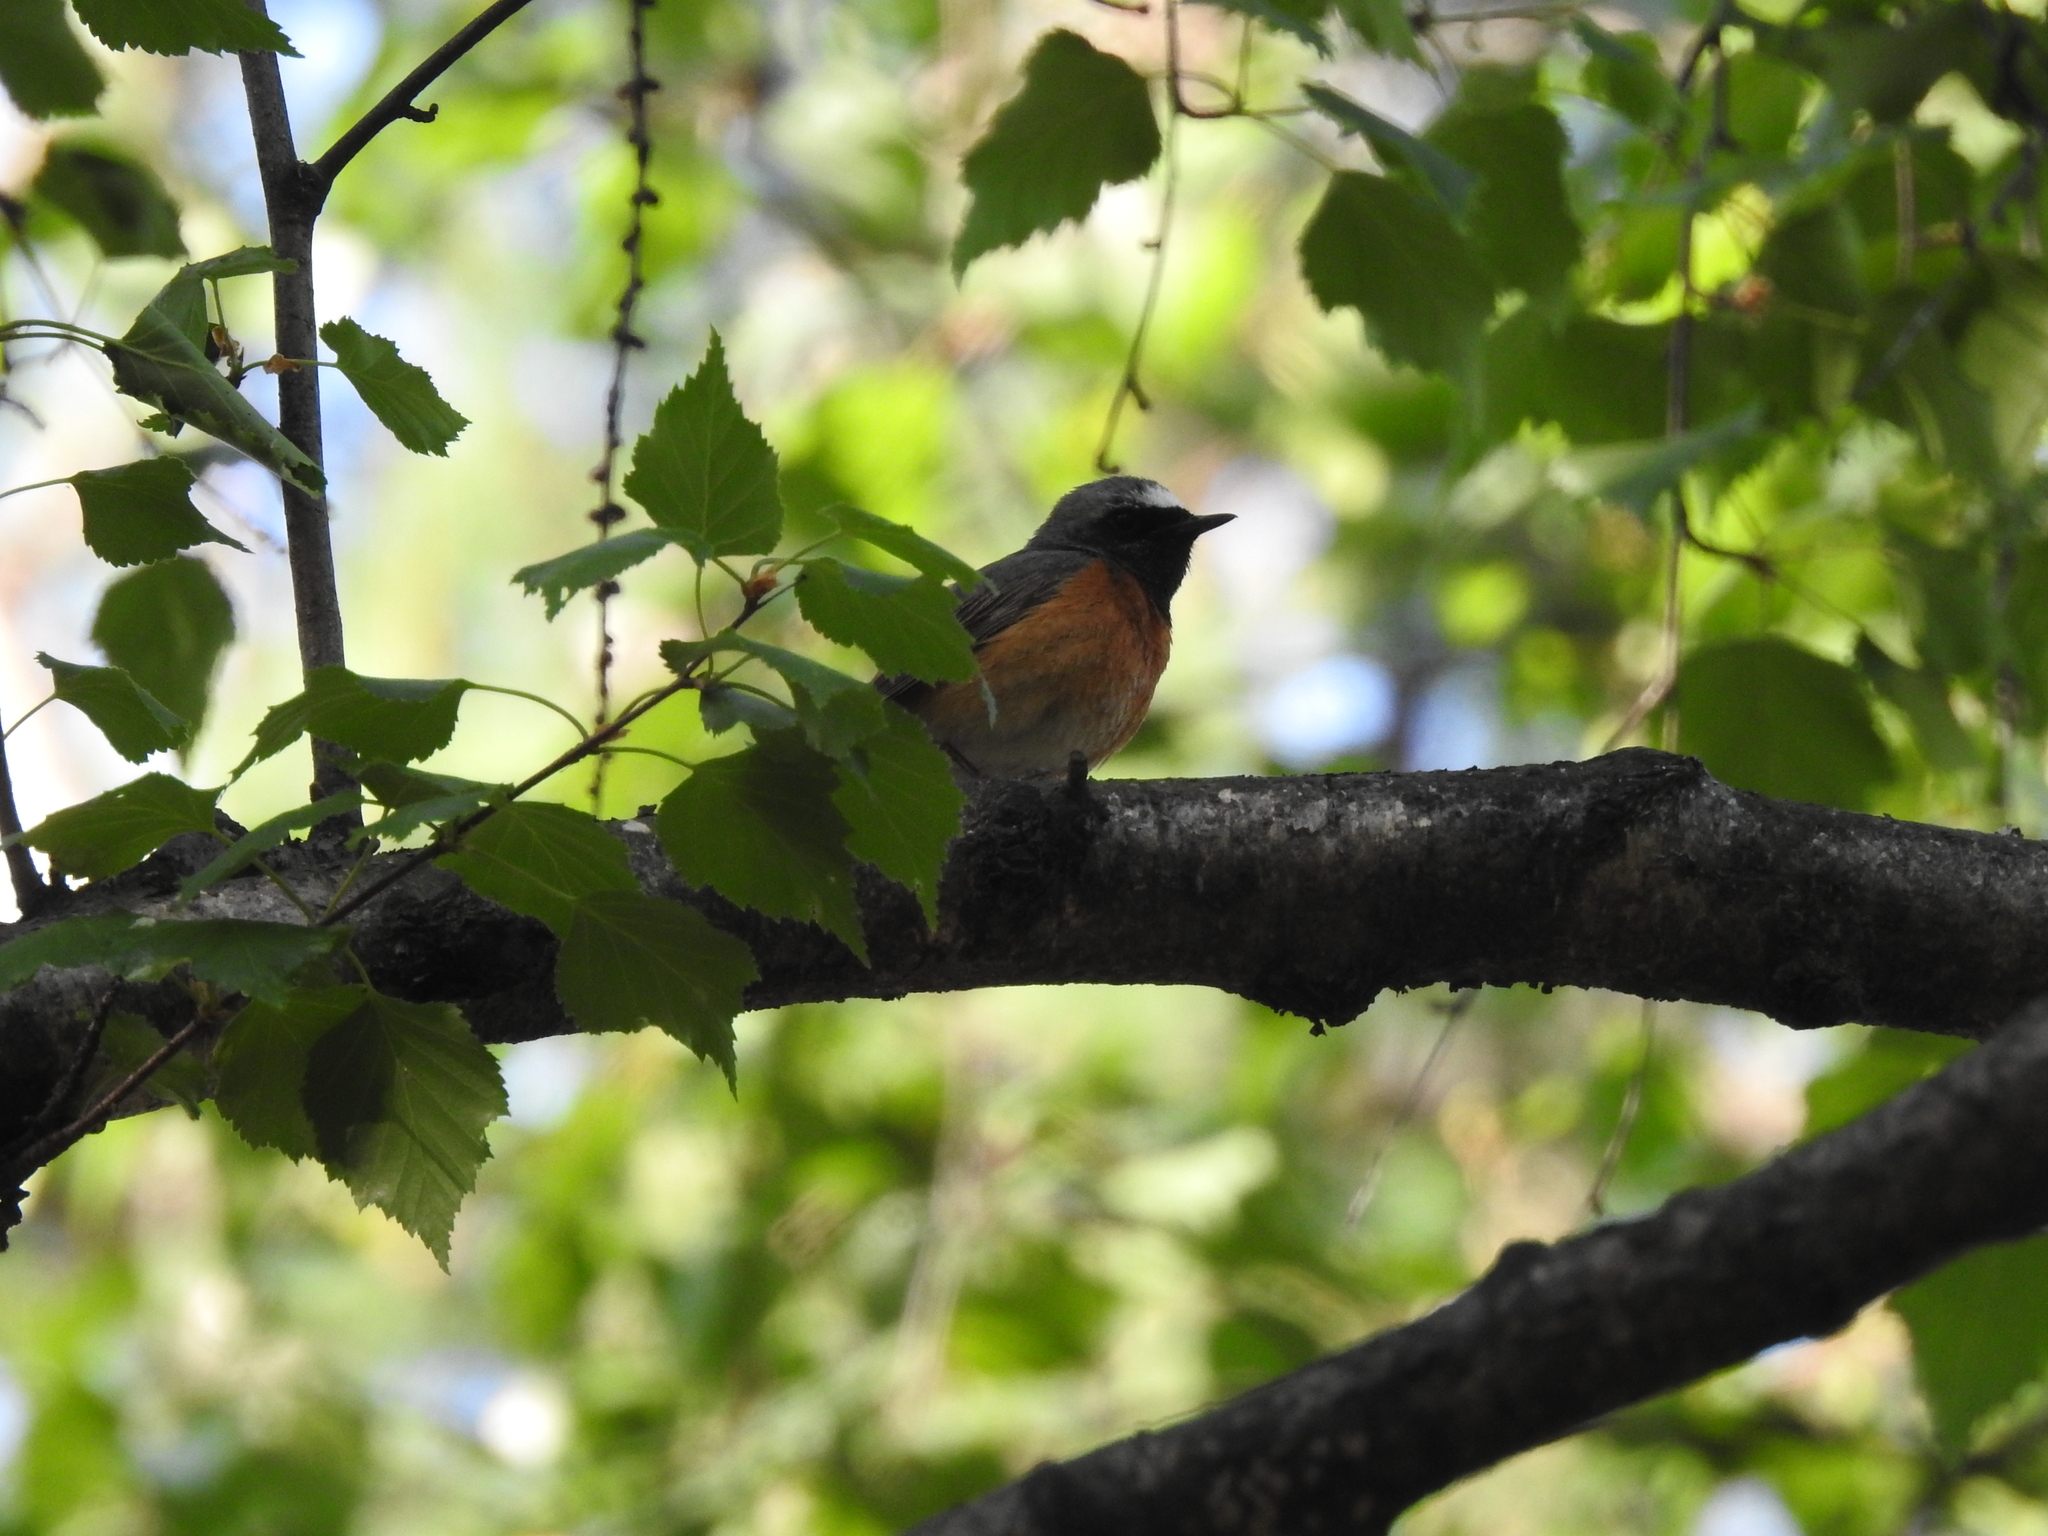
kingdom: Animalia
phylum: Chordata
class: Aves
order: Passeriformes
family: Muscicapidae
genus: Phoenicurus
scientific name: Phoenicurus phoenicurus
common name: Common redstart
